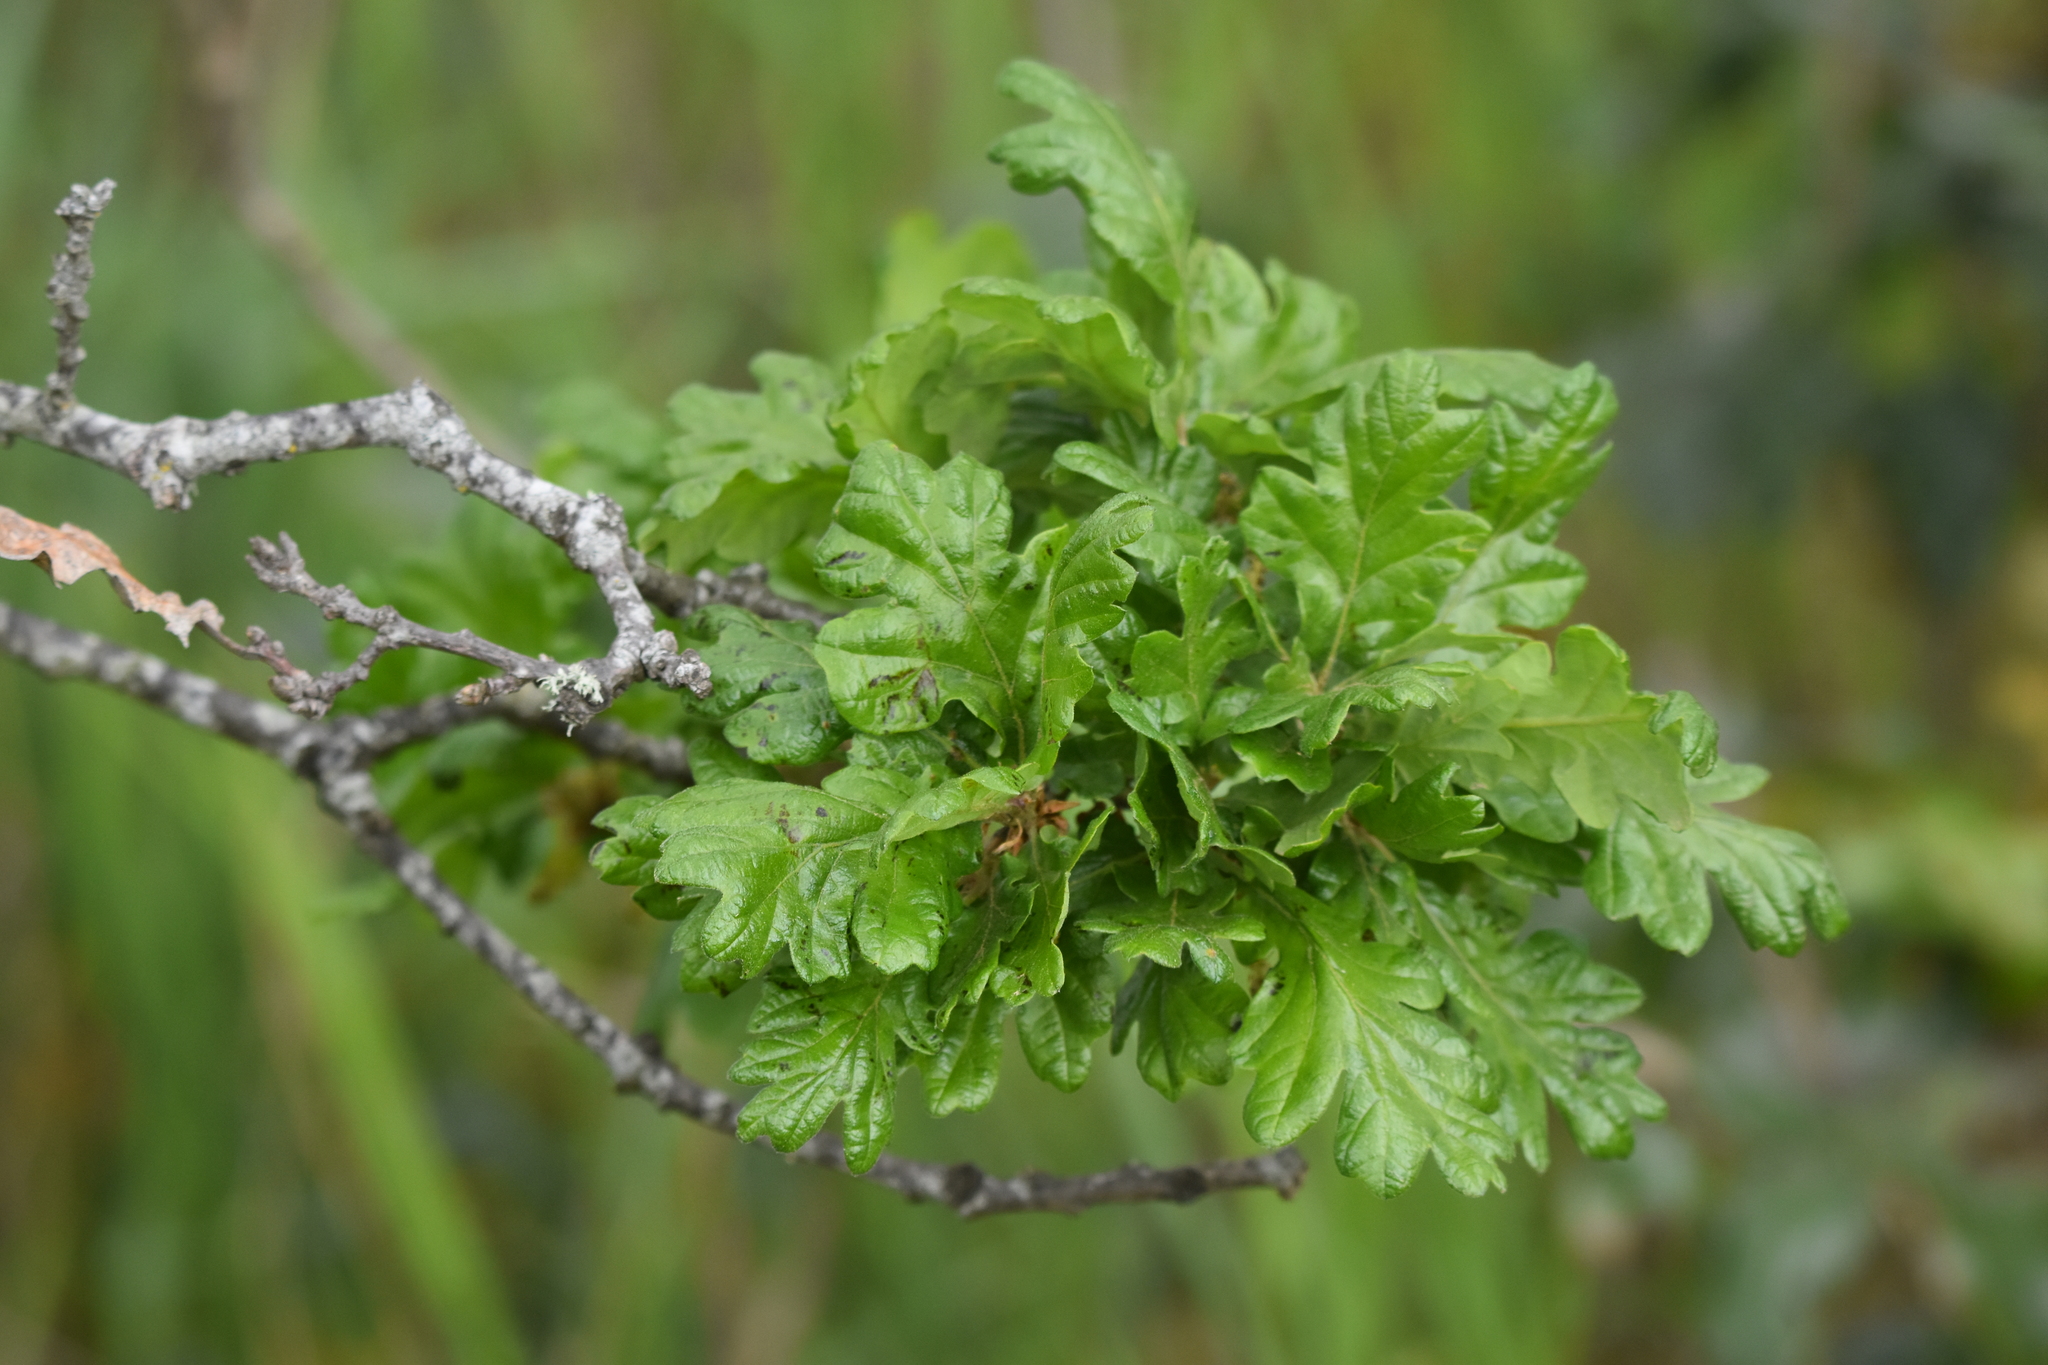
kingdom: Plantae
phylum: Tracheophyta
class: Magnoliopsida
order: Fagales
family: Fagaceae
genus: Quercus
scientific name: Quercus garryana
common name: Garry oak
